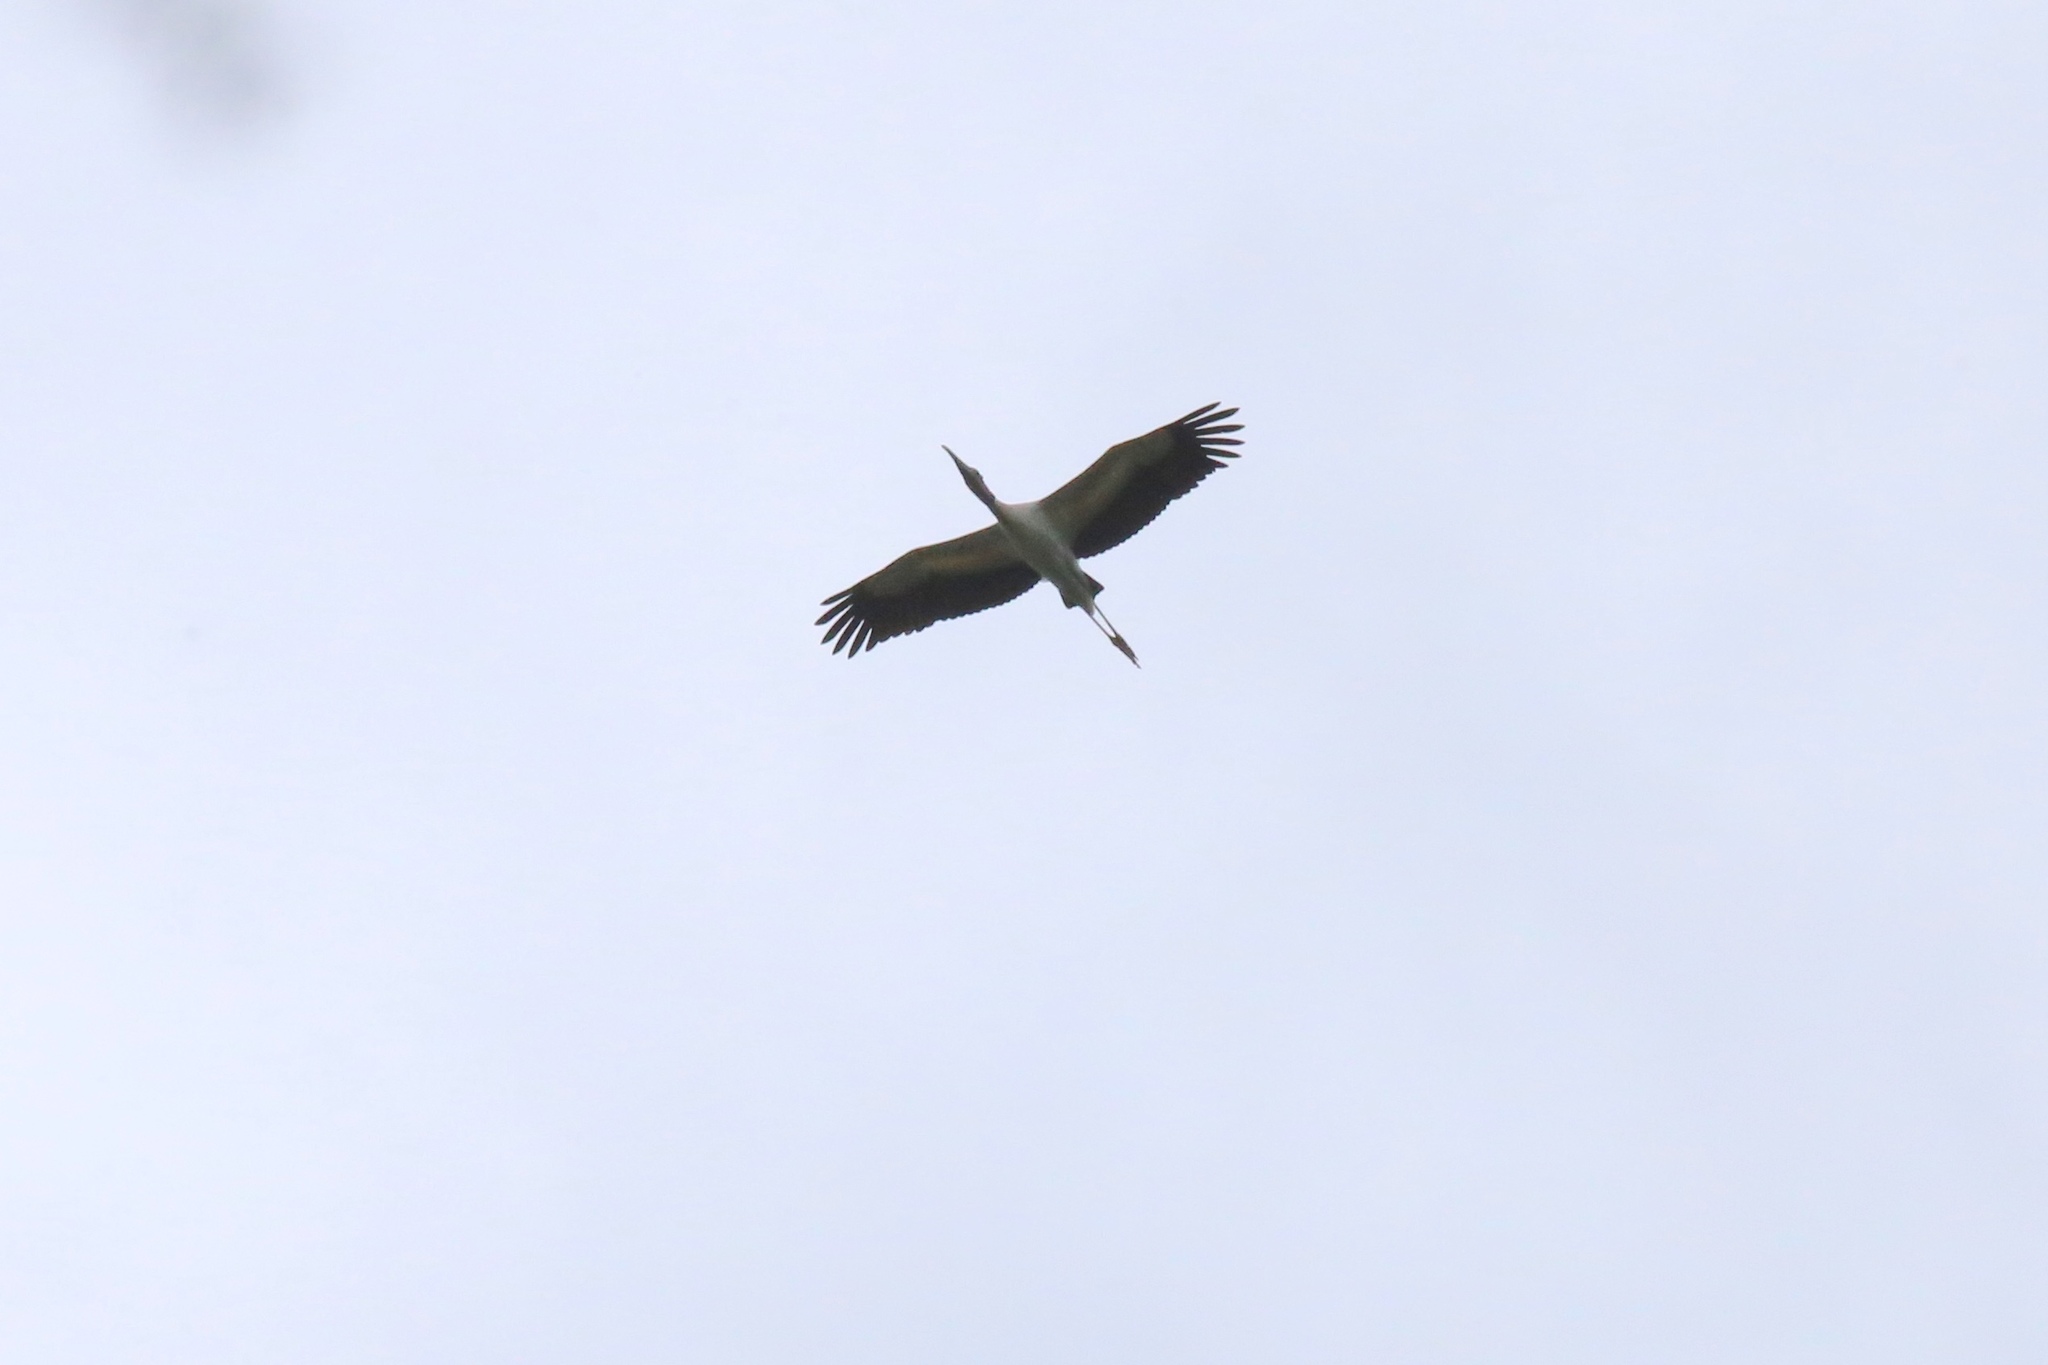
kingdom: Animalia
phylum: Chordata
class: Aves
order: Ciconiiformes
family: Ciconiidae
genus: Mycteria
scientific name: Mycteria americana
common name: Wood stork
